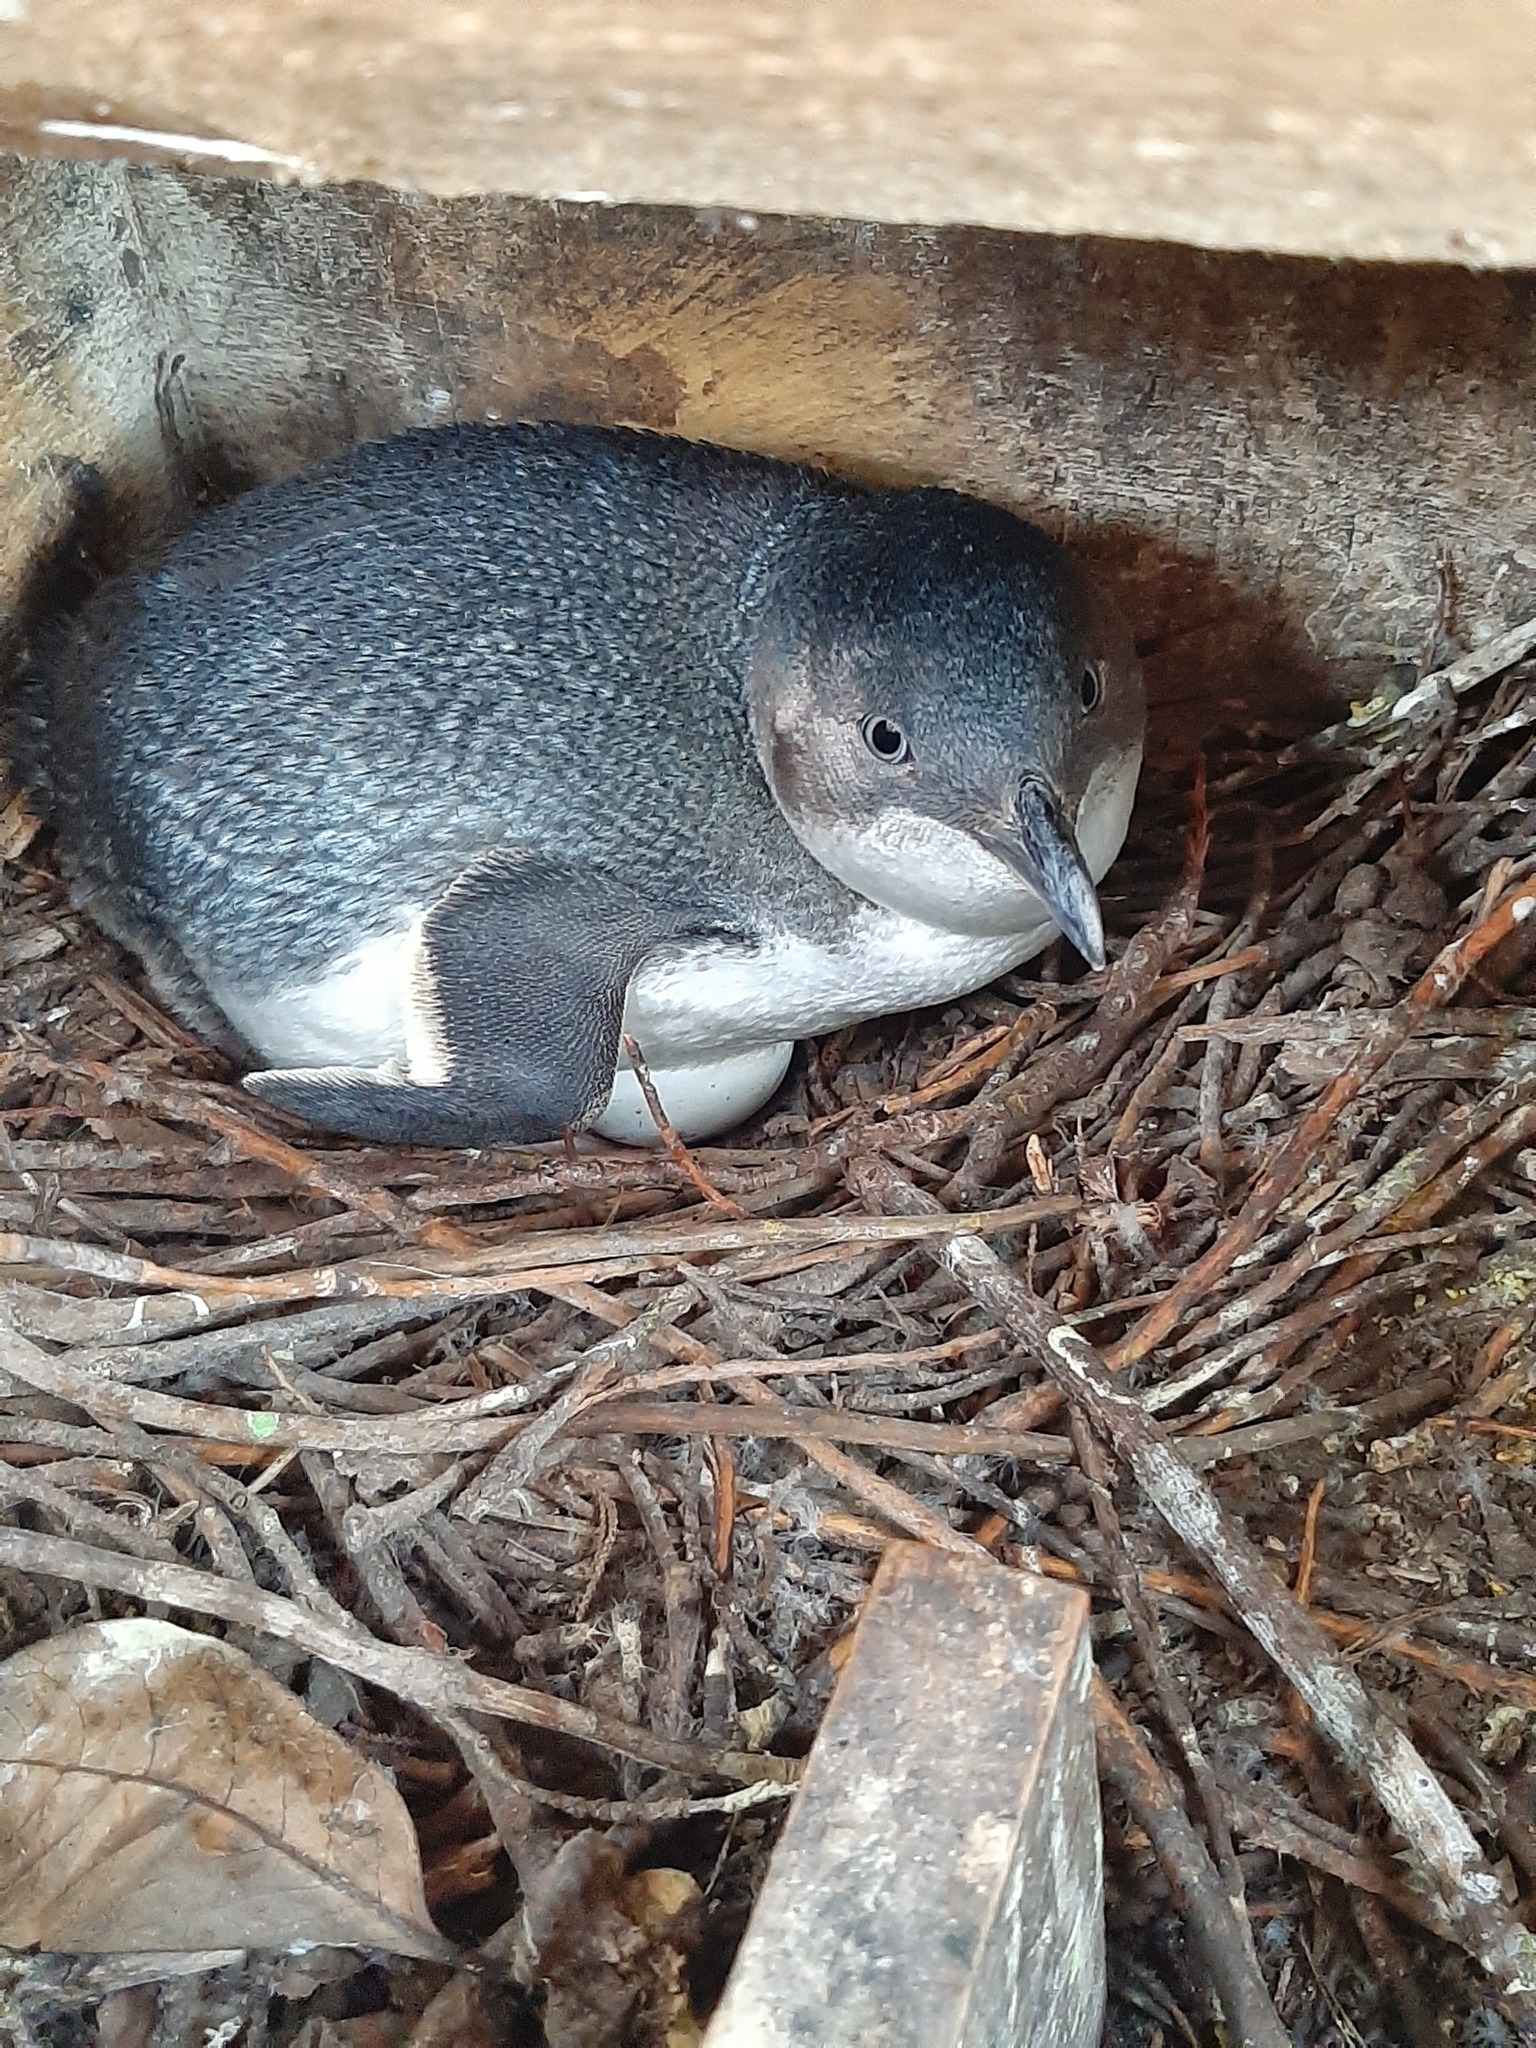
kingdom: Animalia
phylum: Chordata
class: Aves
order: Sphenisciformes
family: Spheniscidae
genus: Eudyptula
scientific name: Eudyptula minor
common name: Little penguin
